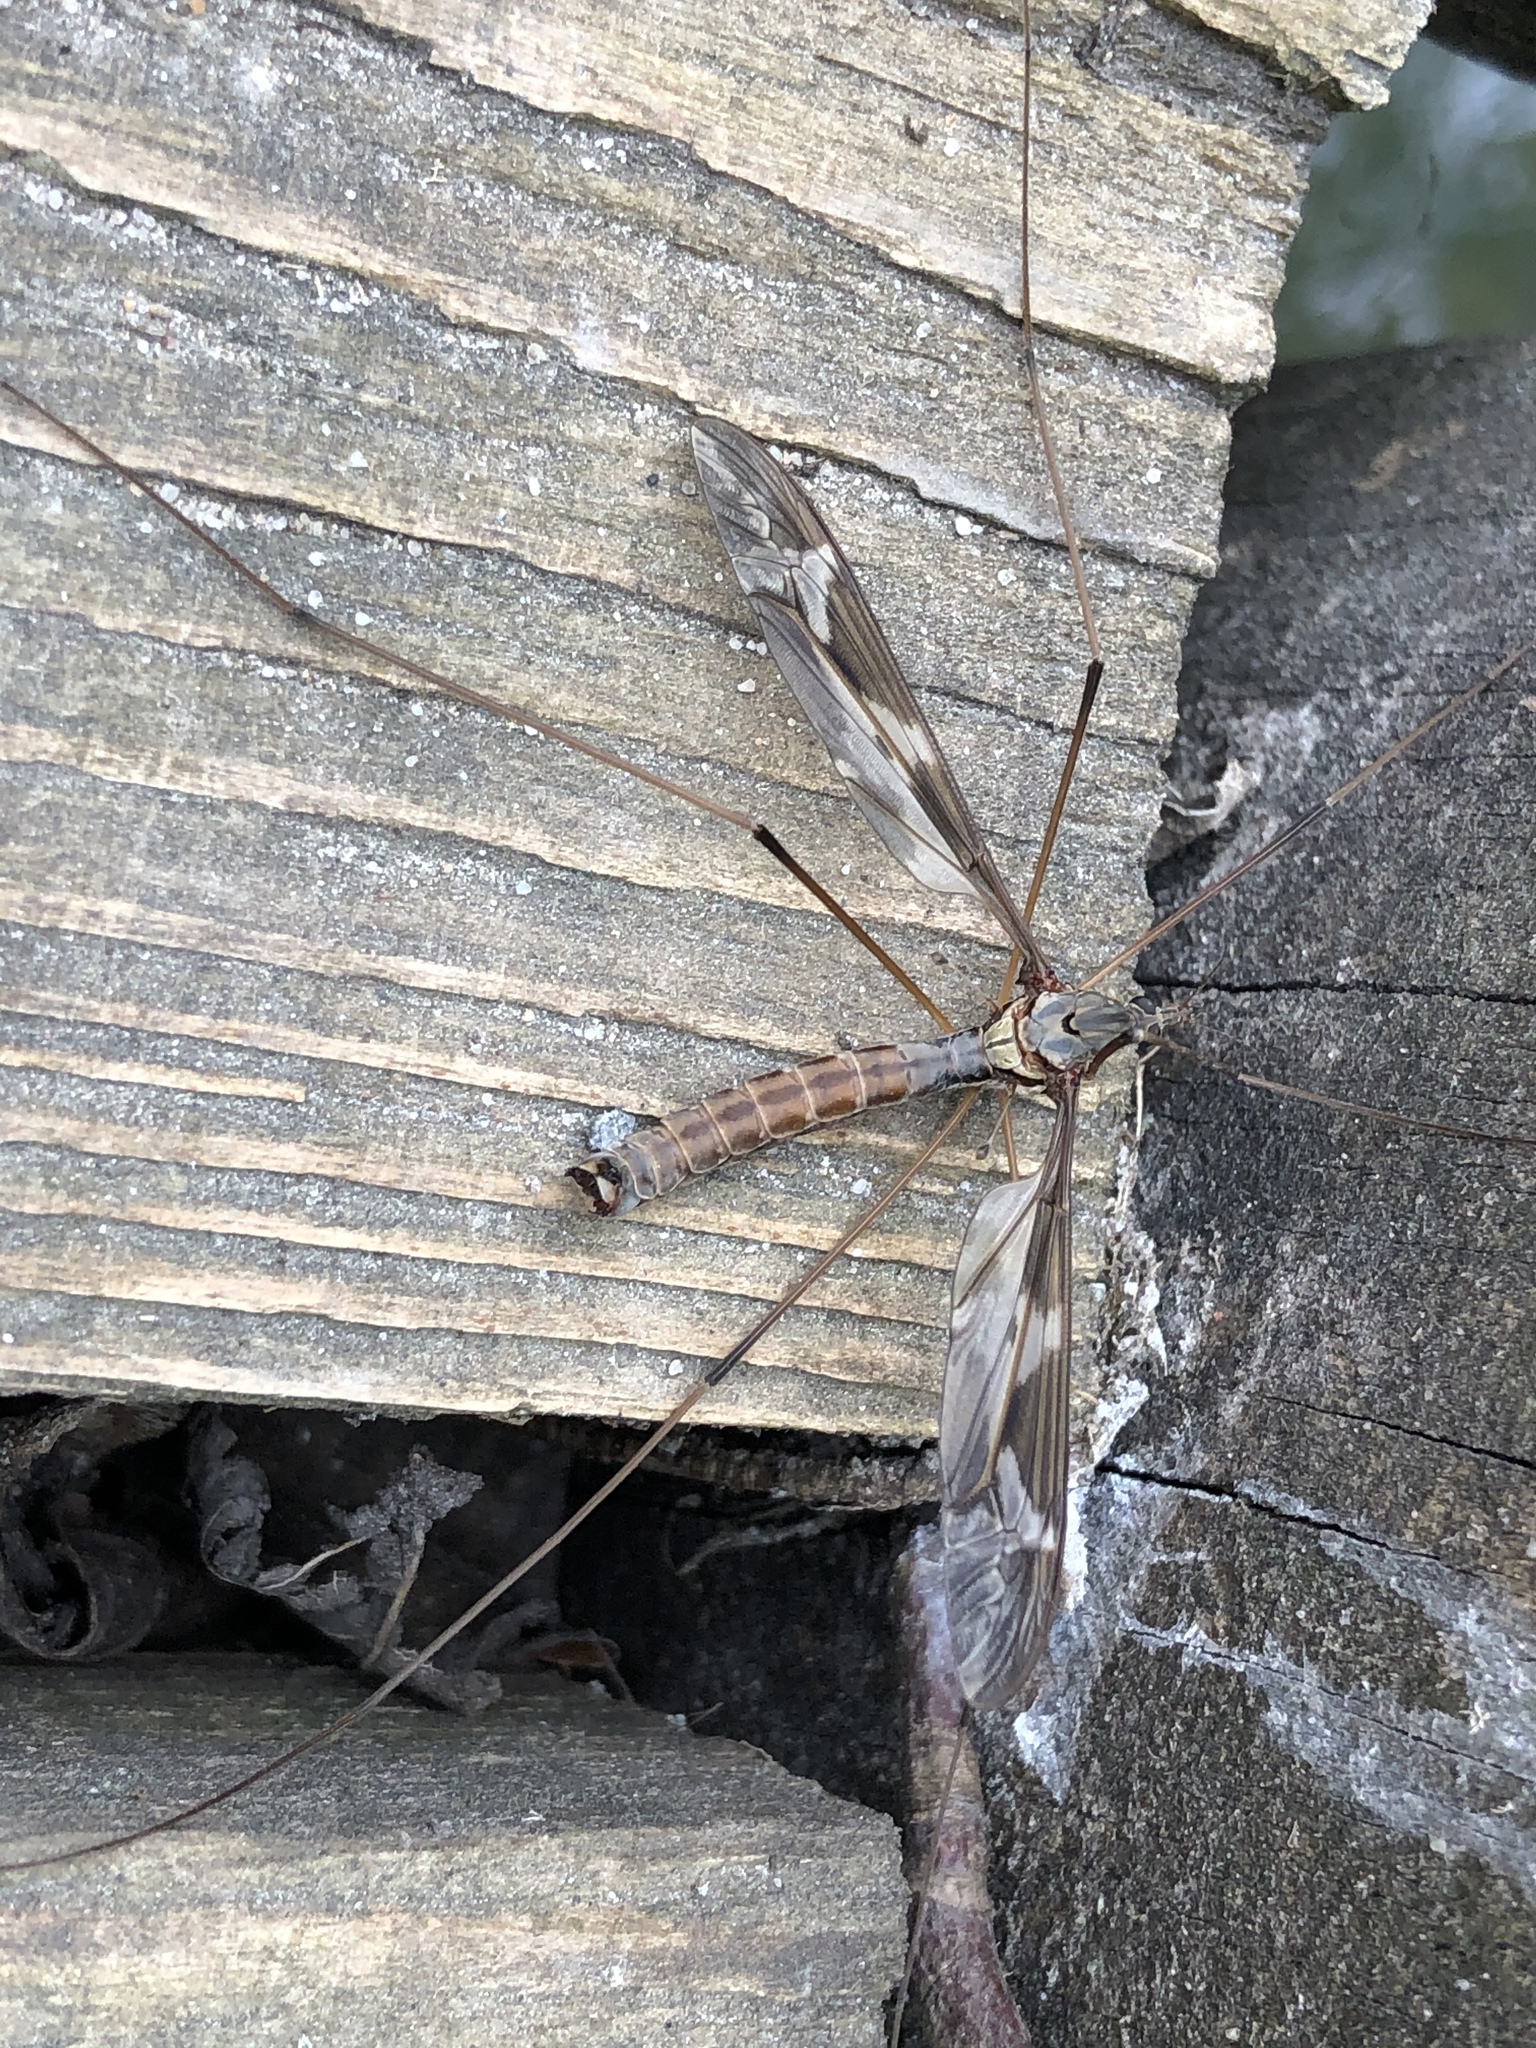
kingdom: Animalia
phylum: Arthropoda
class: Insecta
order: Diptera
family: Tipulidae
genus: Tipula
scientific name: Tipula maxima
